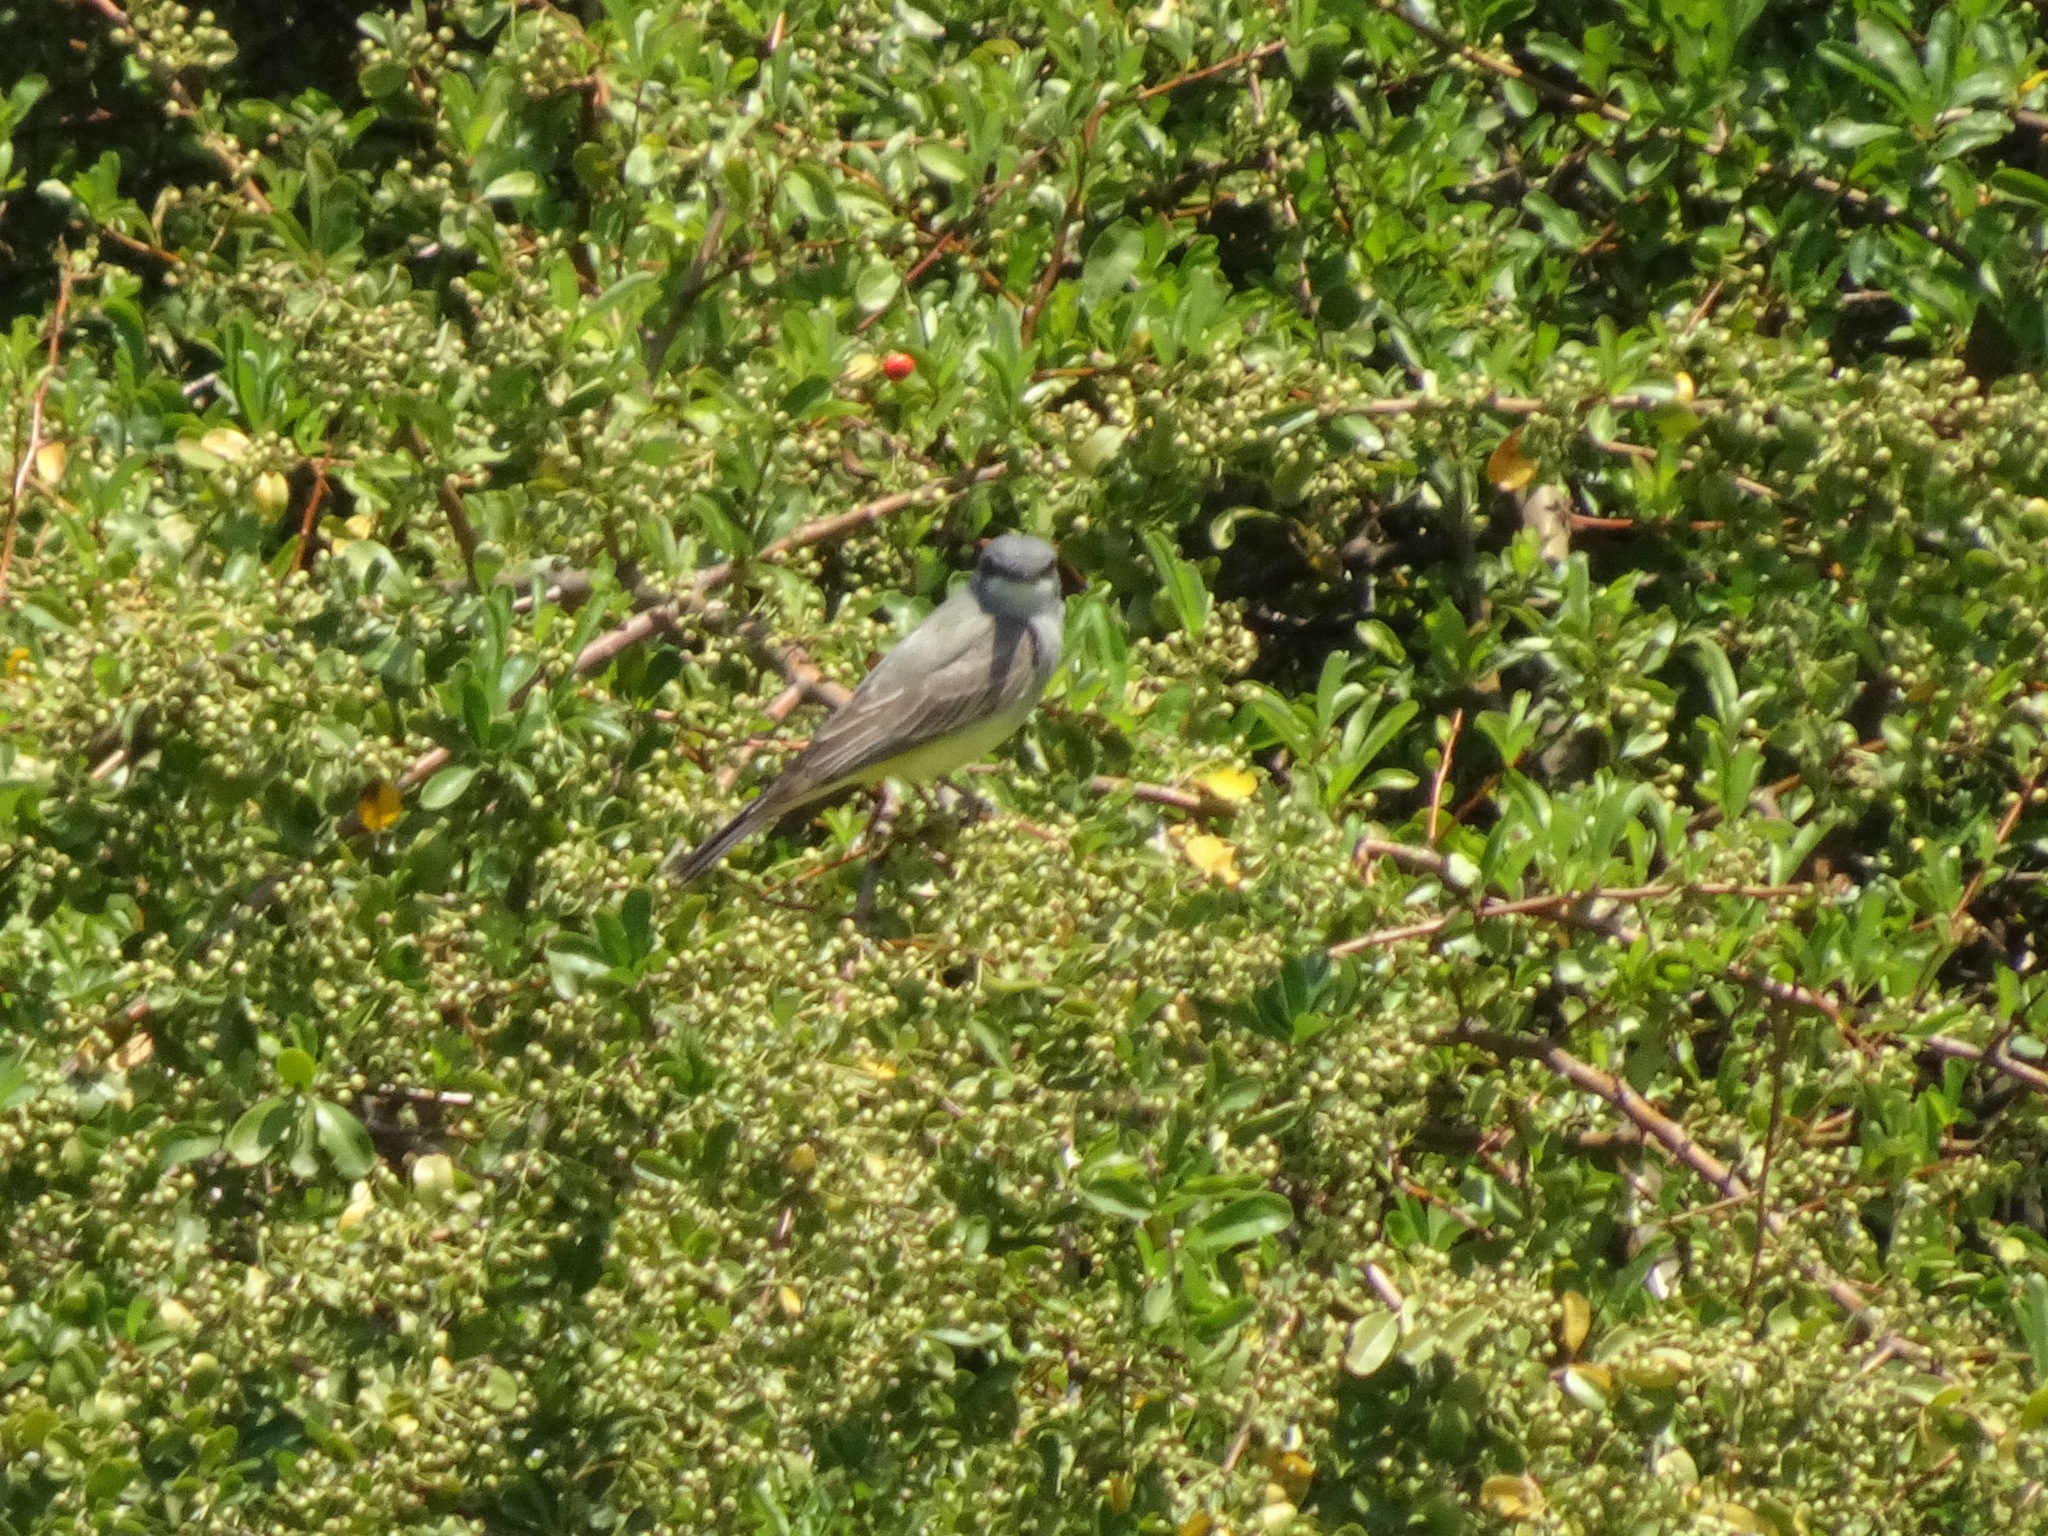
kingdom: Animalia
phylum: Chordata
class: Aves
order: Passeriformes
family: Tyrannidae
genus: Tyrannus
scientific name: Tyrannus vociferans
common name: Cassin's kingbird
